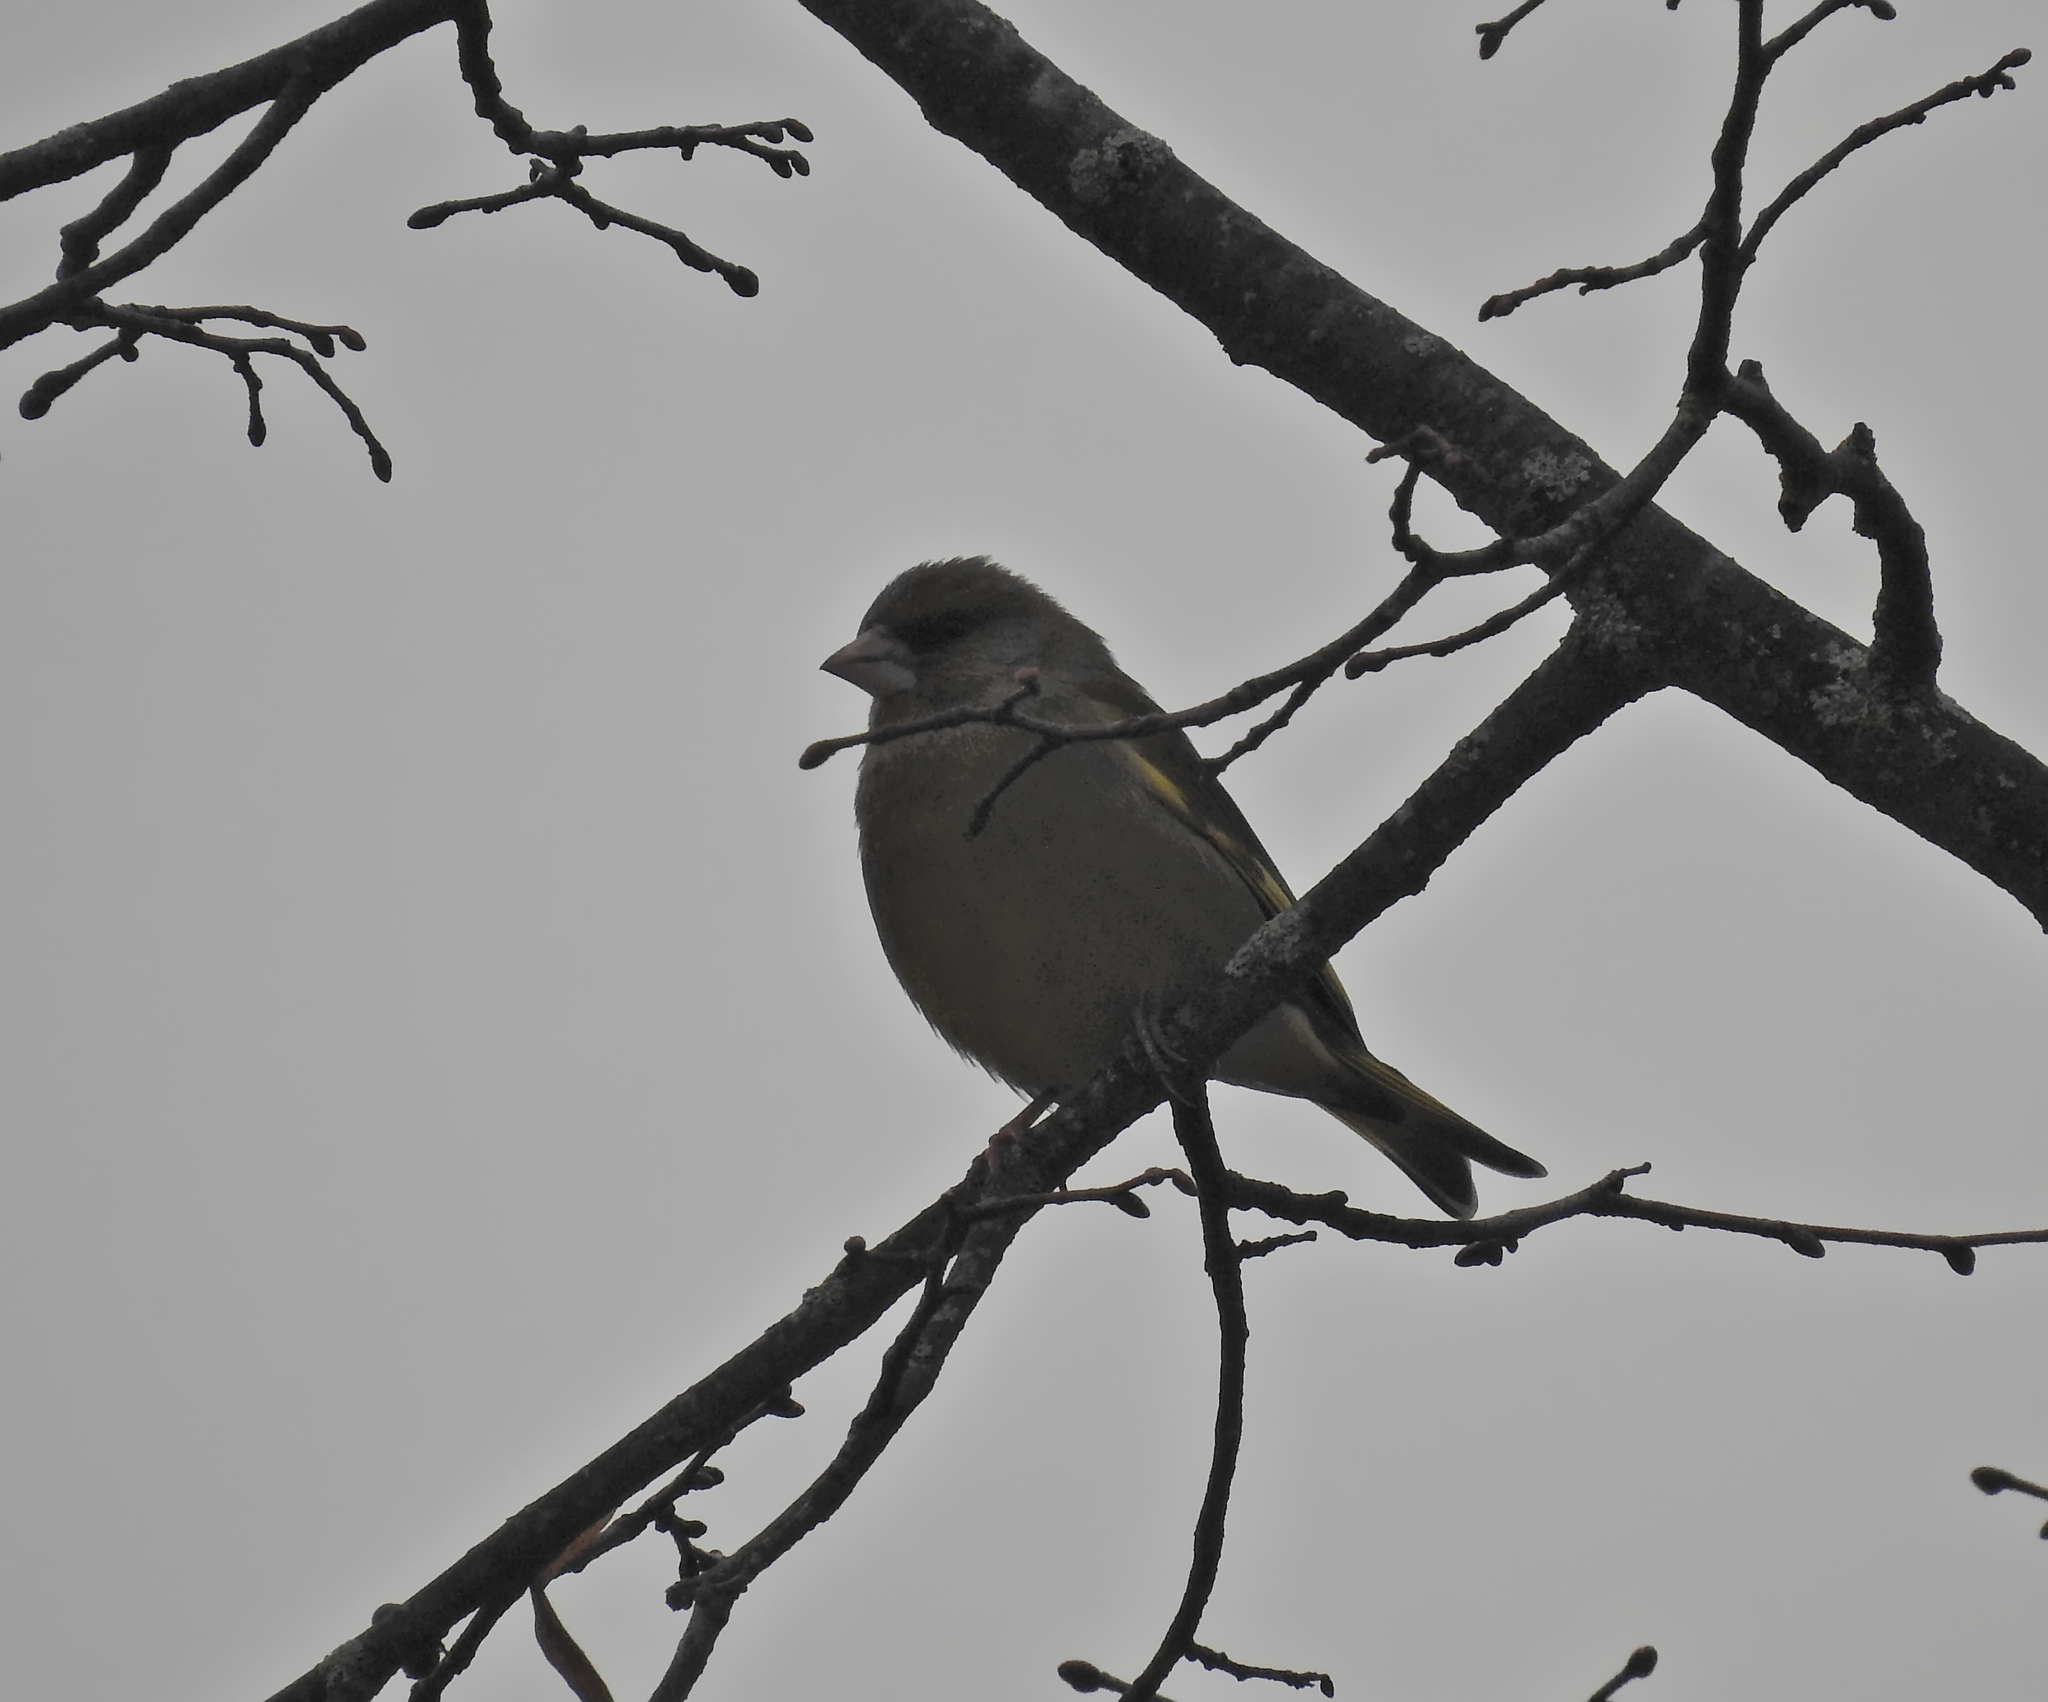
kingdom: Plantae
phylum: Tracheophyta
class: Liliopsida
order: Poales
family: Poaceae
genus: Chloris
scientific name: Chloris chloris
